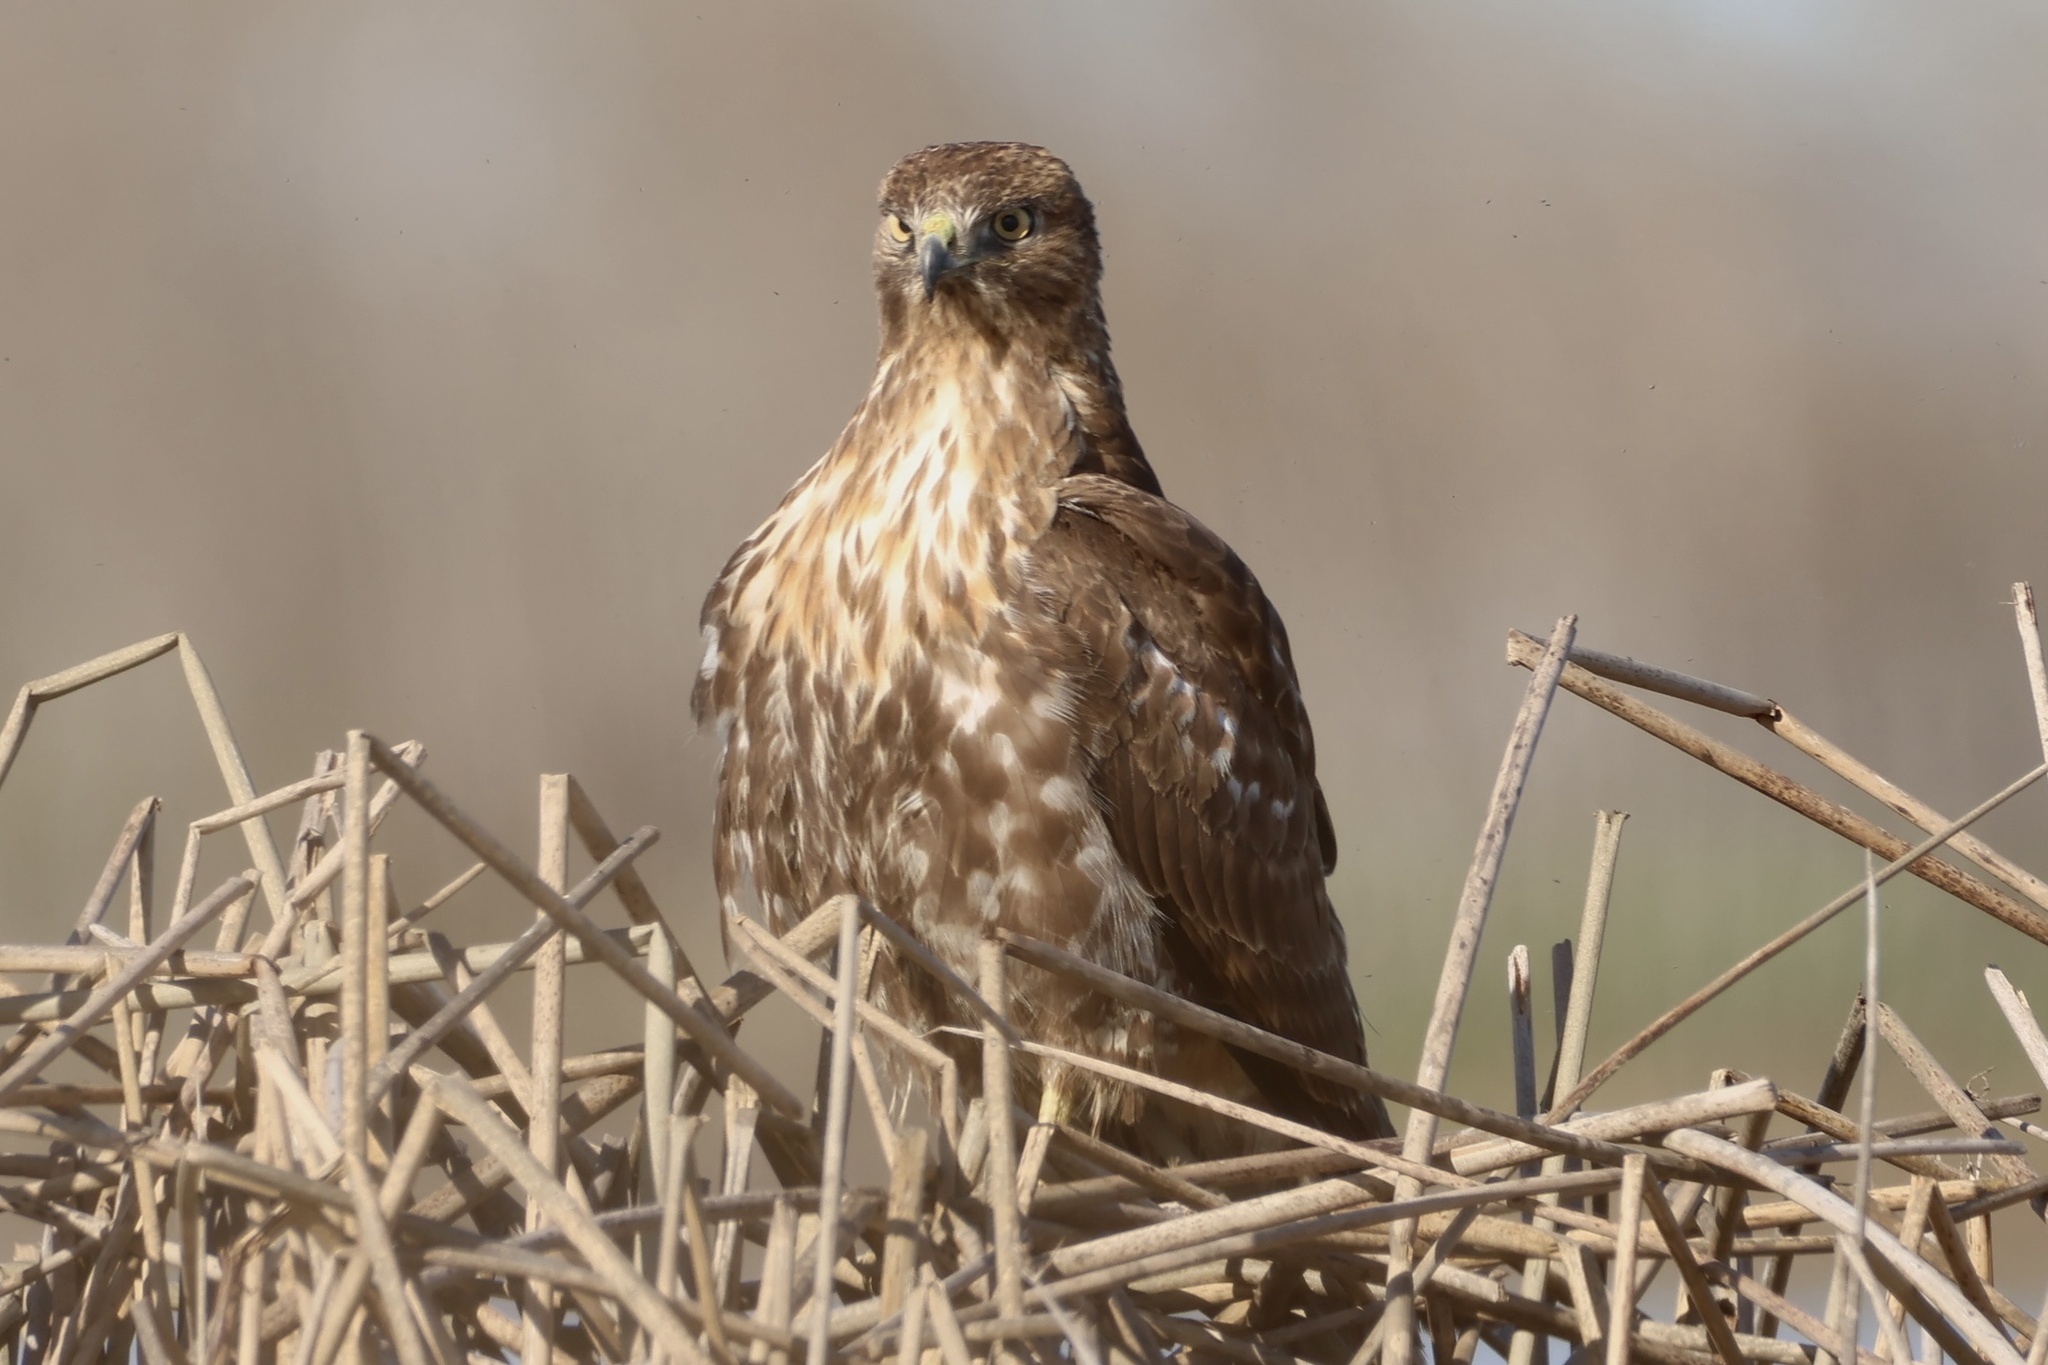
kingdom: Animalia
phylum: Chordata
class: Aves
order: Accipitriformes
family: Accipitridae
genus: Buteo
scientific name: Buteo jamaicensis
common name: Red-tailed hawk
